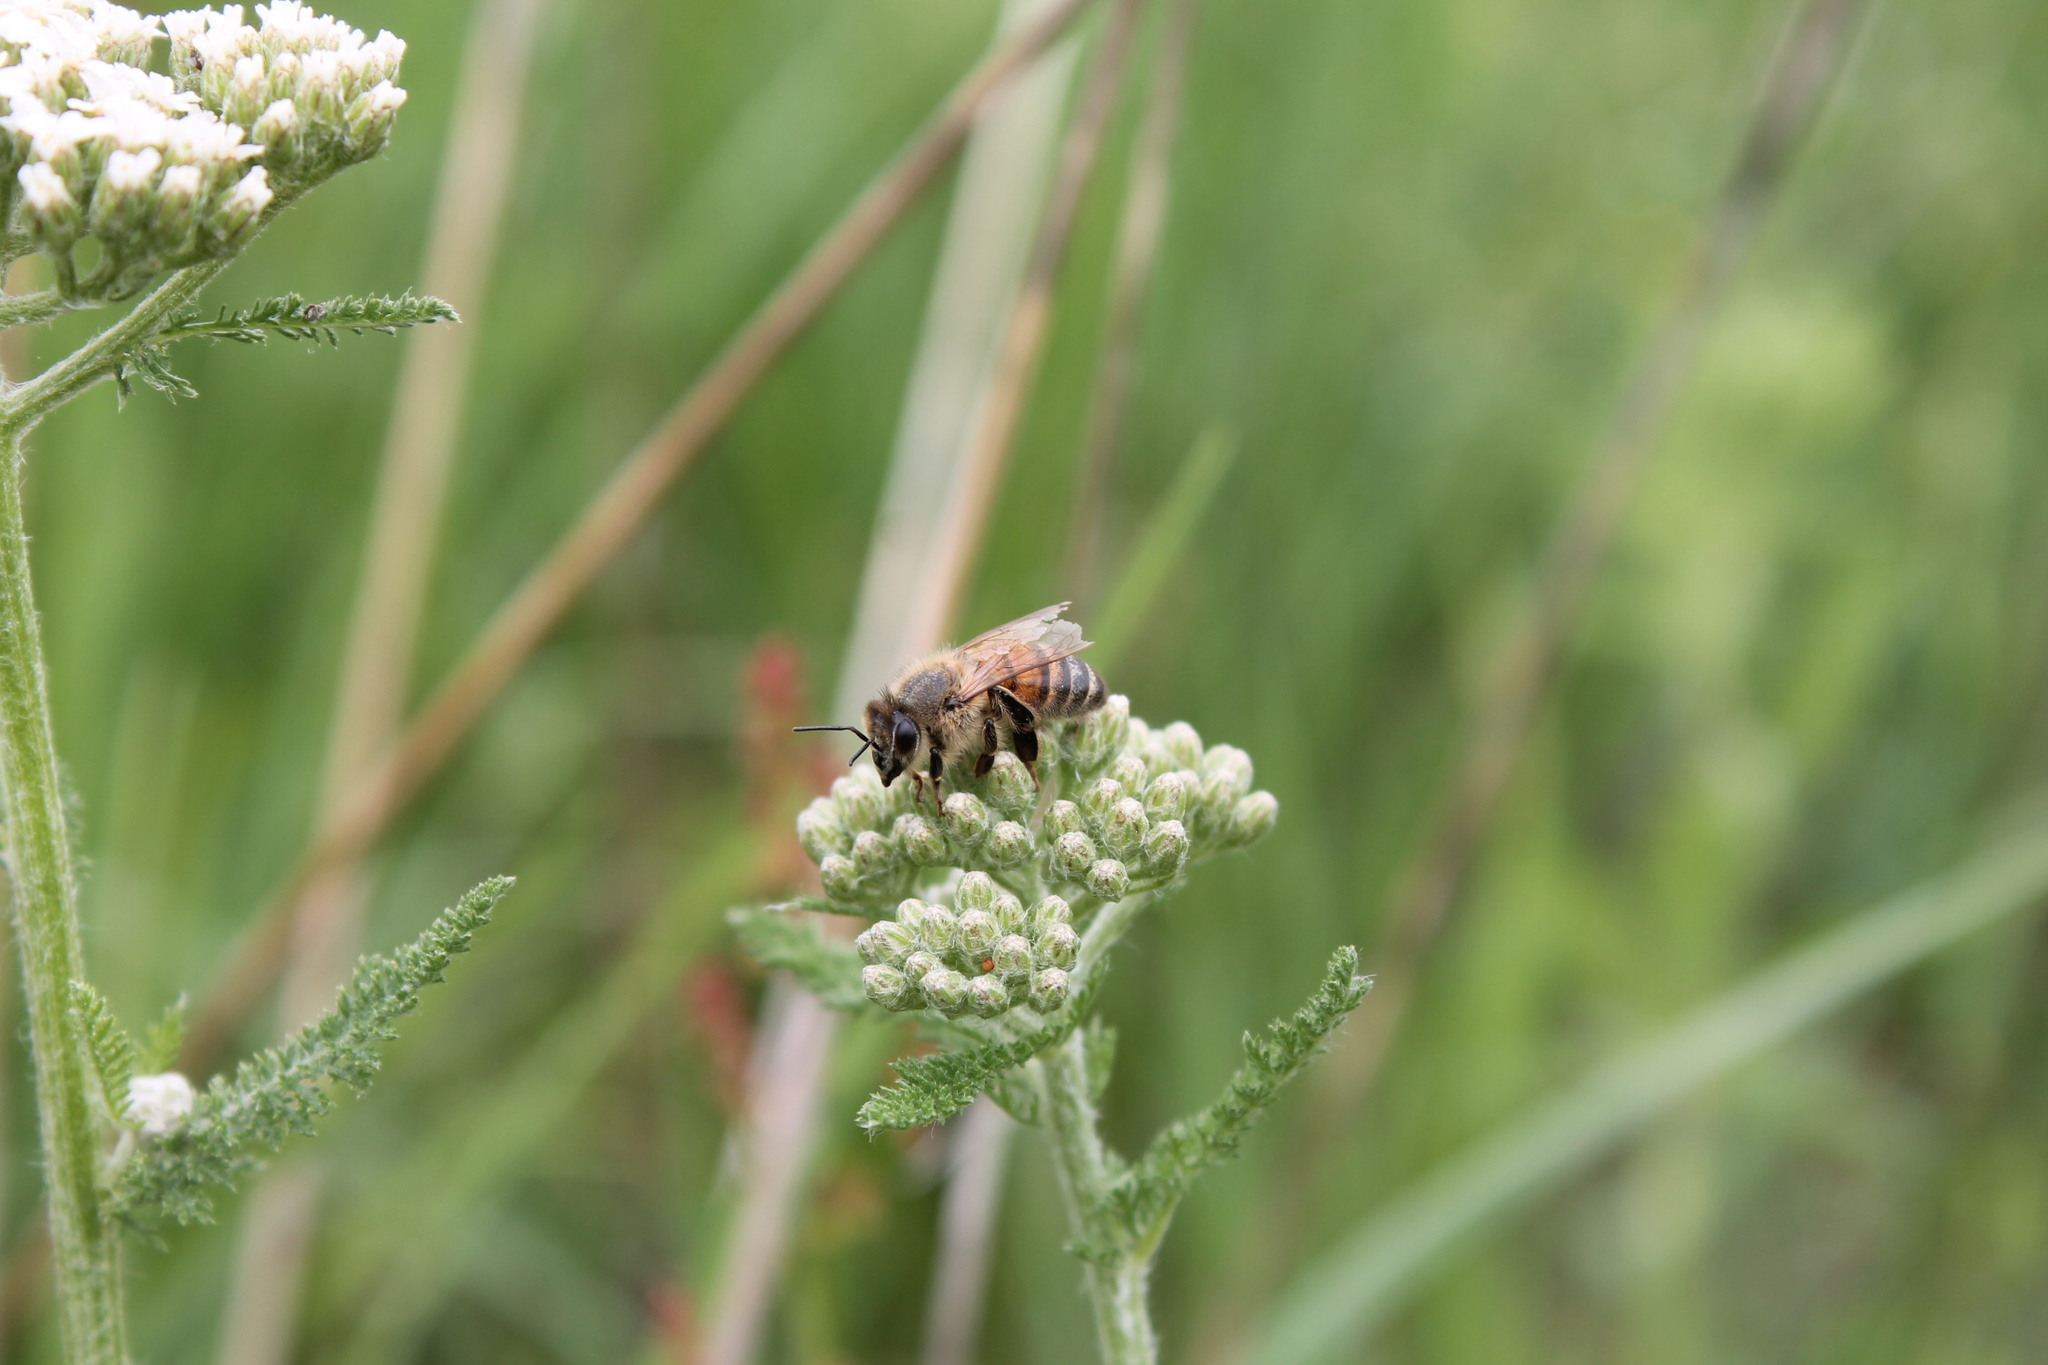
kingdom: Animalia
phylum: Arthropoda
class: Insecta
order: Hymenoptera
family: Apidae
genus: Apis
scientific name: Apis mellifera
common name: Honey bee
